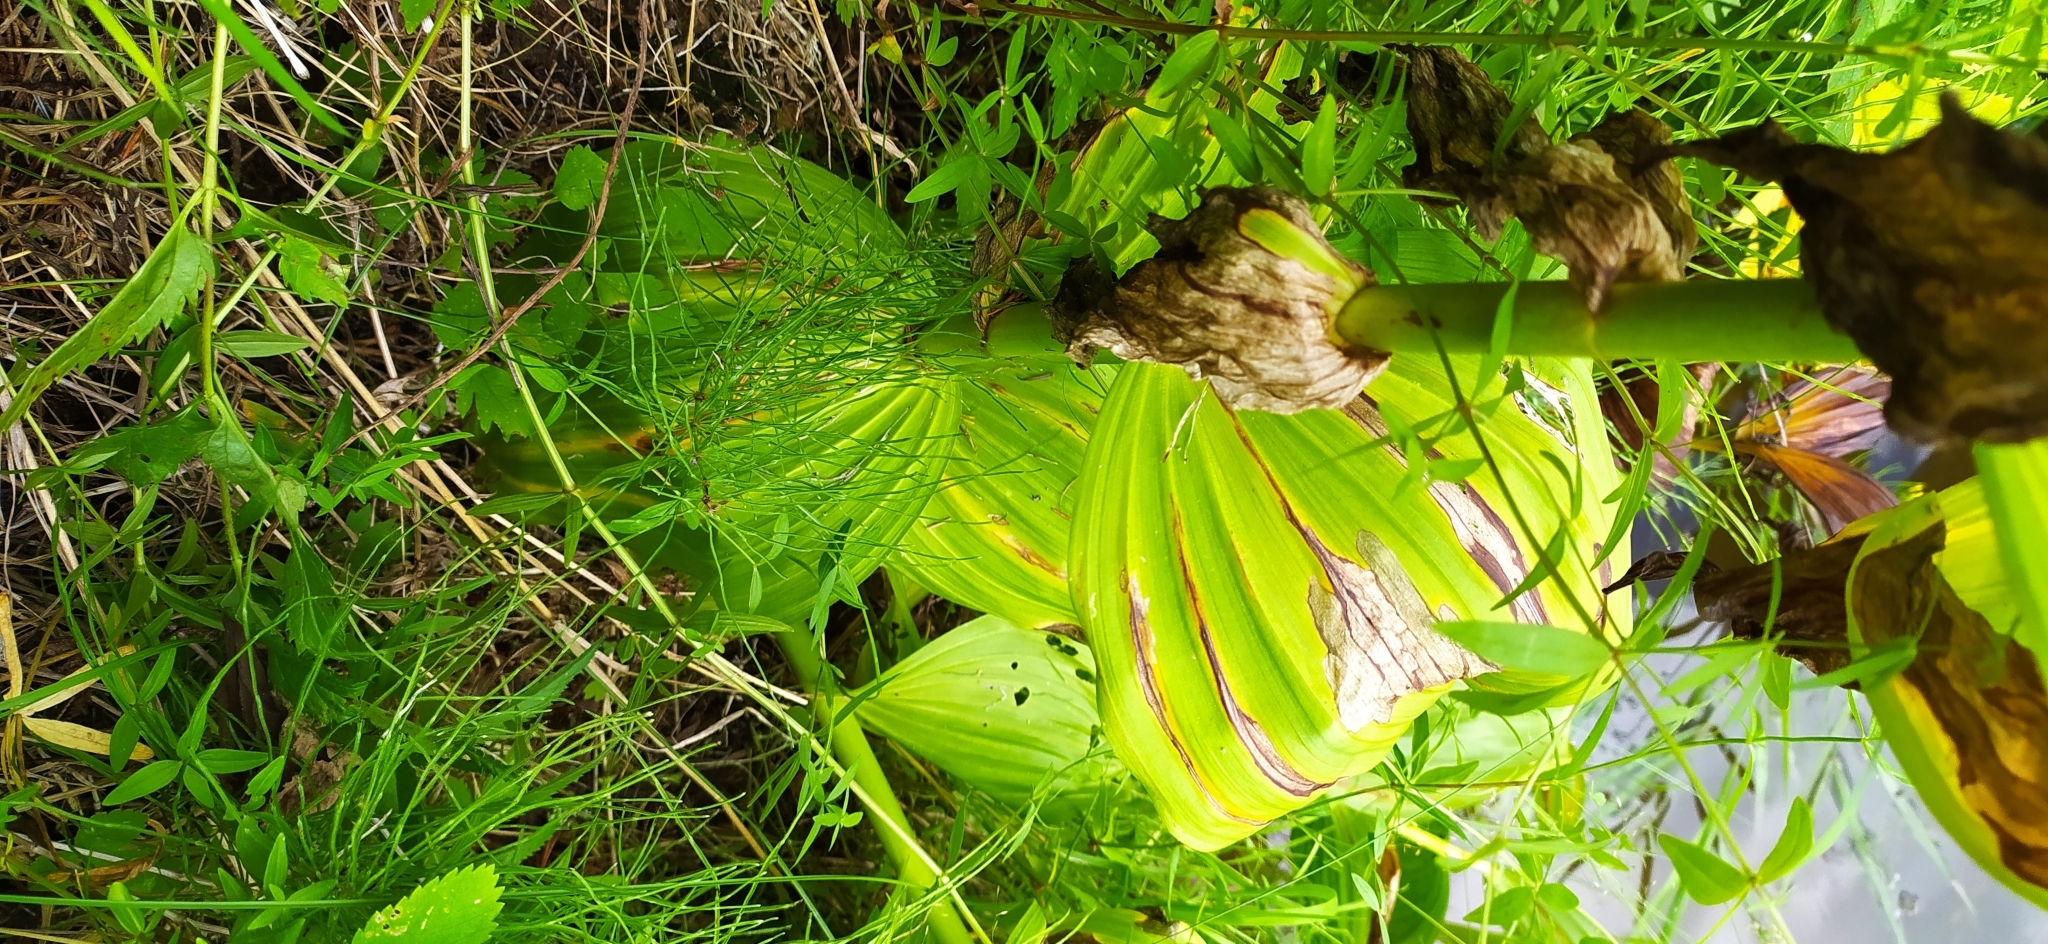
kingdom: Plantae
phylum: Tracheophyta
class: Liliopsida
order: Liliales
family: Melanthiaceae
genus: Veratrum
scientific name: Veratrum lobelianum
